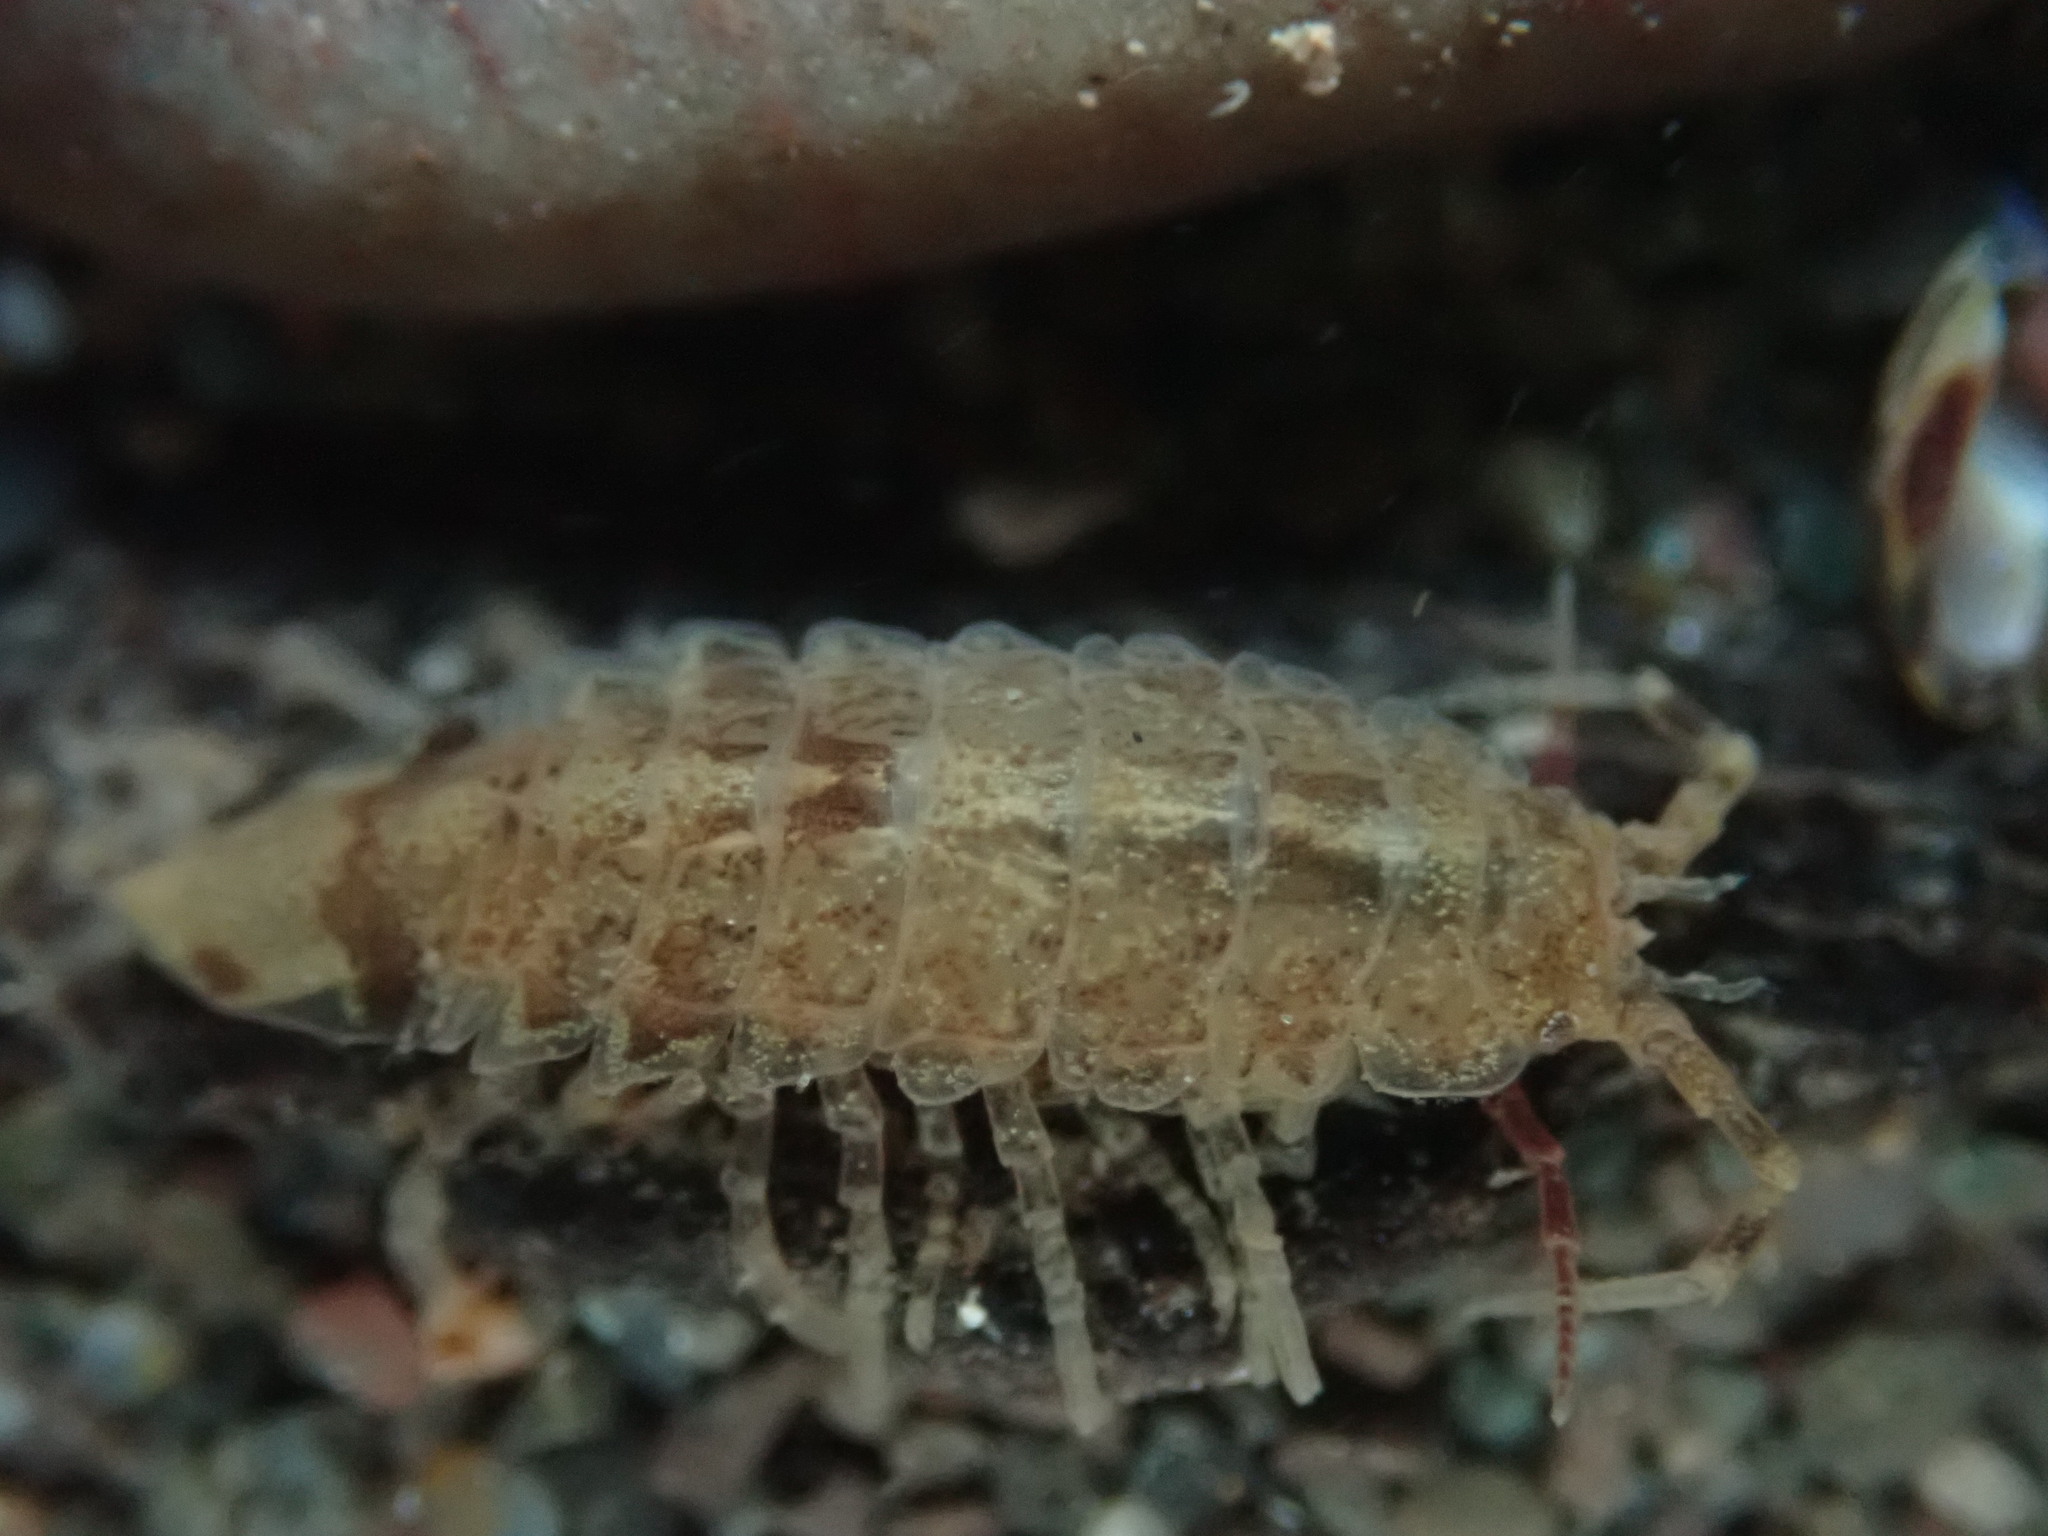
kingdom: Animalia
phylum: Arthropoda
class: Malacostraca
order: Isopoda
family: Idoteidae
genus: Idotea
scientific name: Idotea phosphorea
